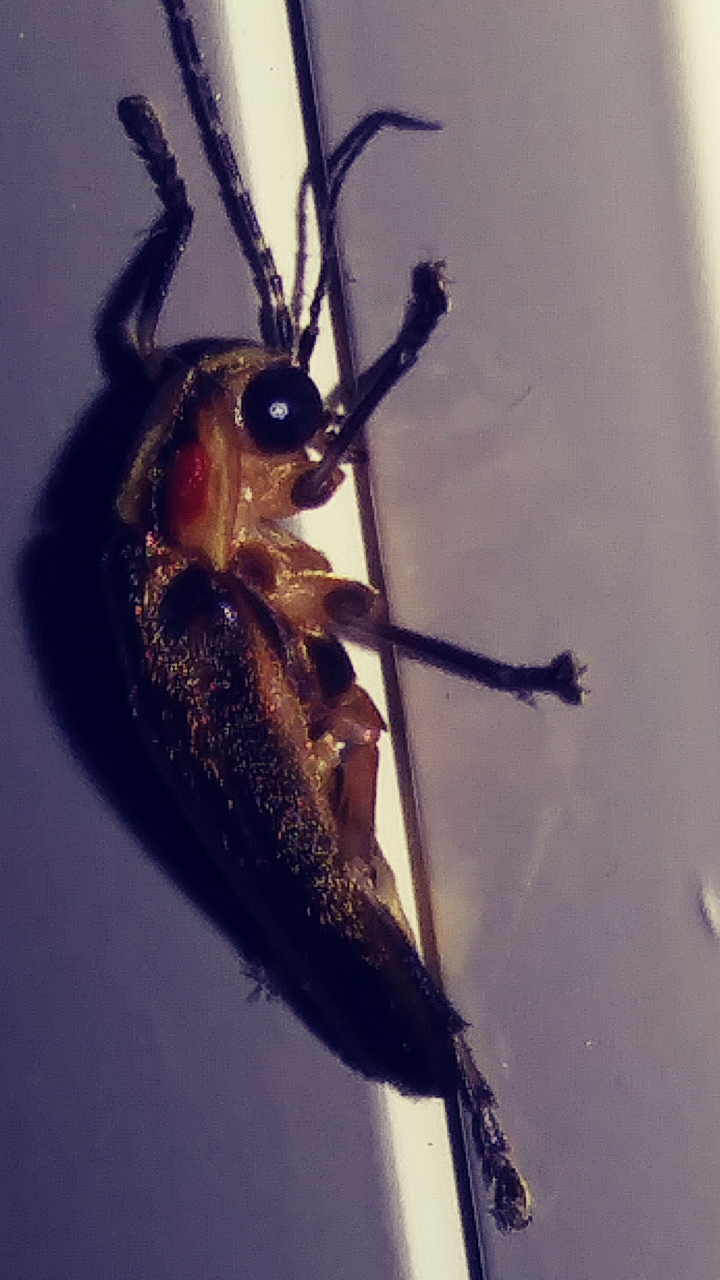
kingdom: Animalia
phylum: Arthropoda
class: Insecta
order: Coleoptera
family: Lampyridae
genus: Photuris
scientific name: Photuris
